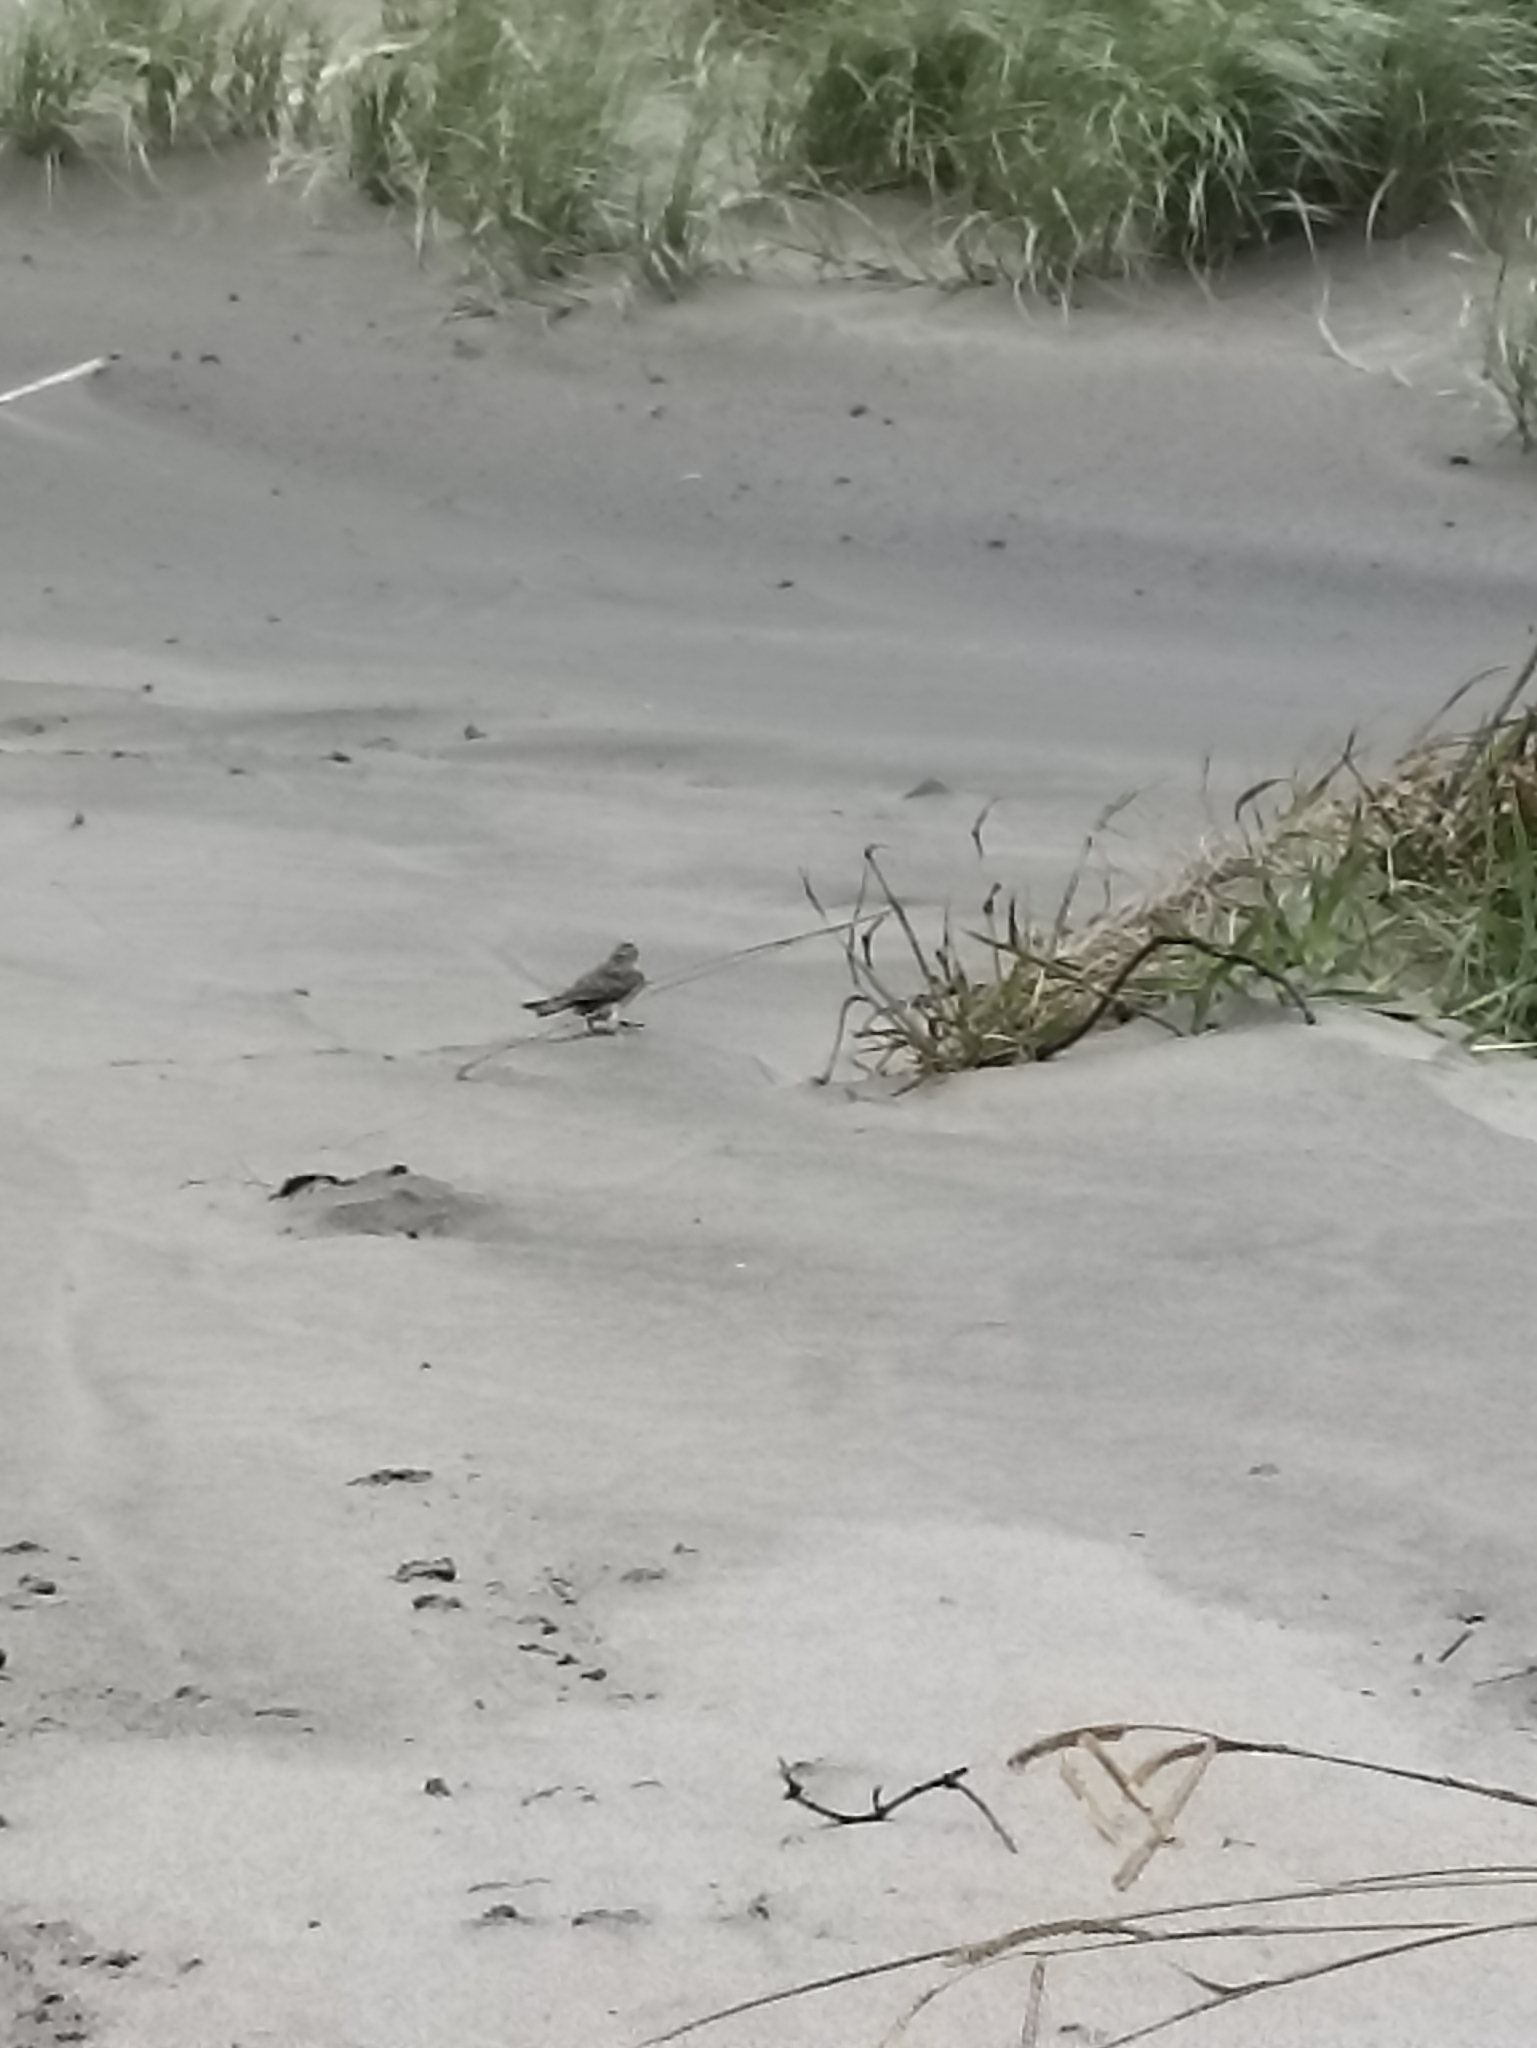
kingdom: Animalia
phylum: Chordata
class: Aves
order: Passeriformes
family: Motacillidae
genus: Anthus
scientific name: Anthus novaeseelandiae
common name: New zealand pipit
